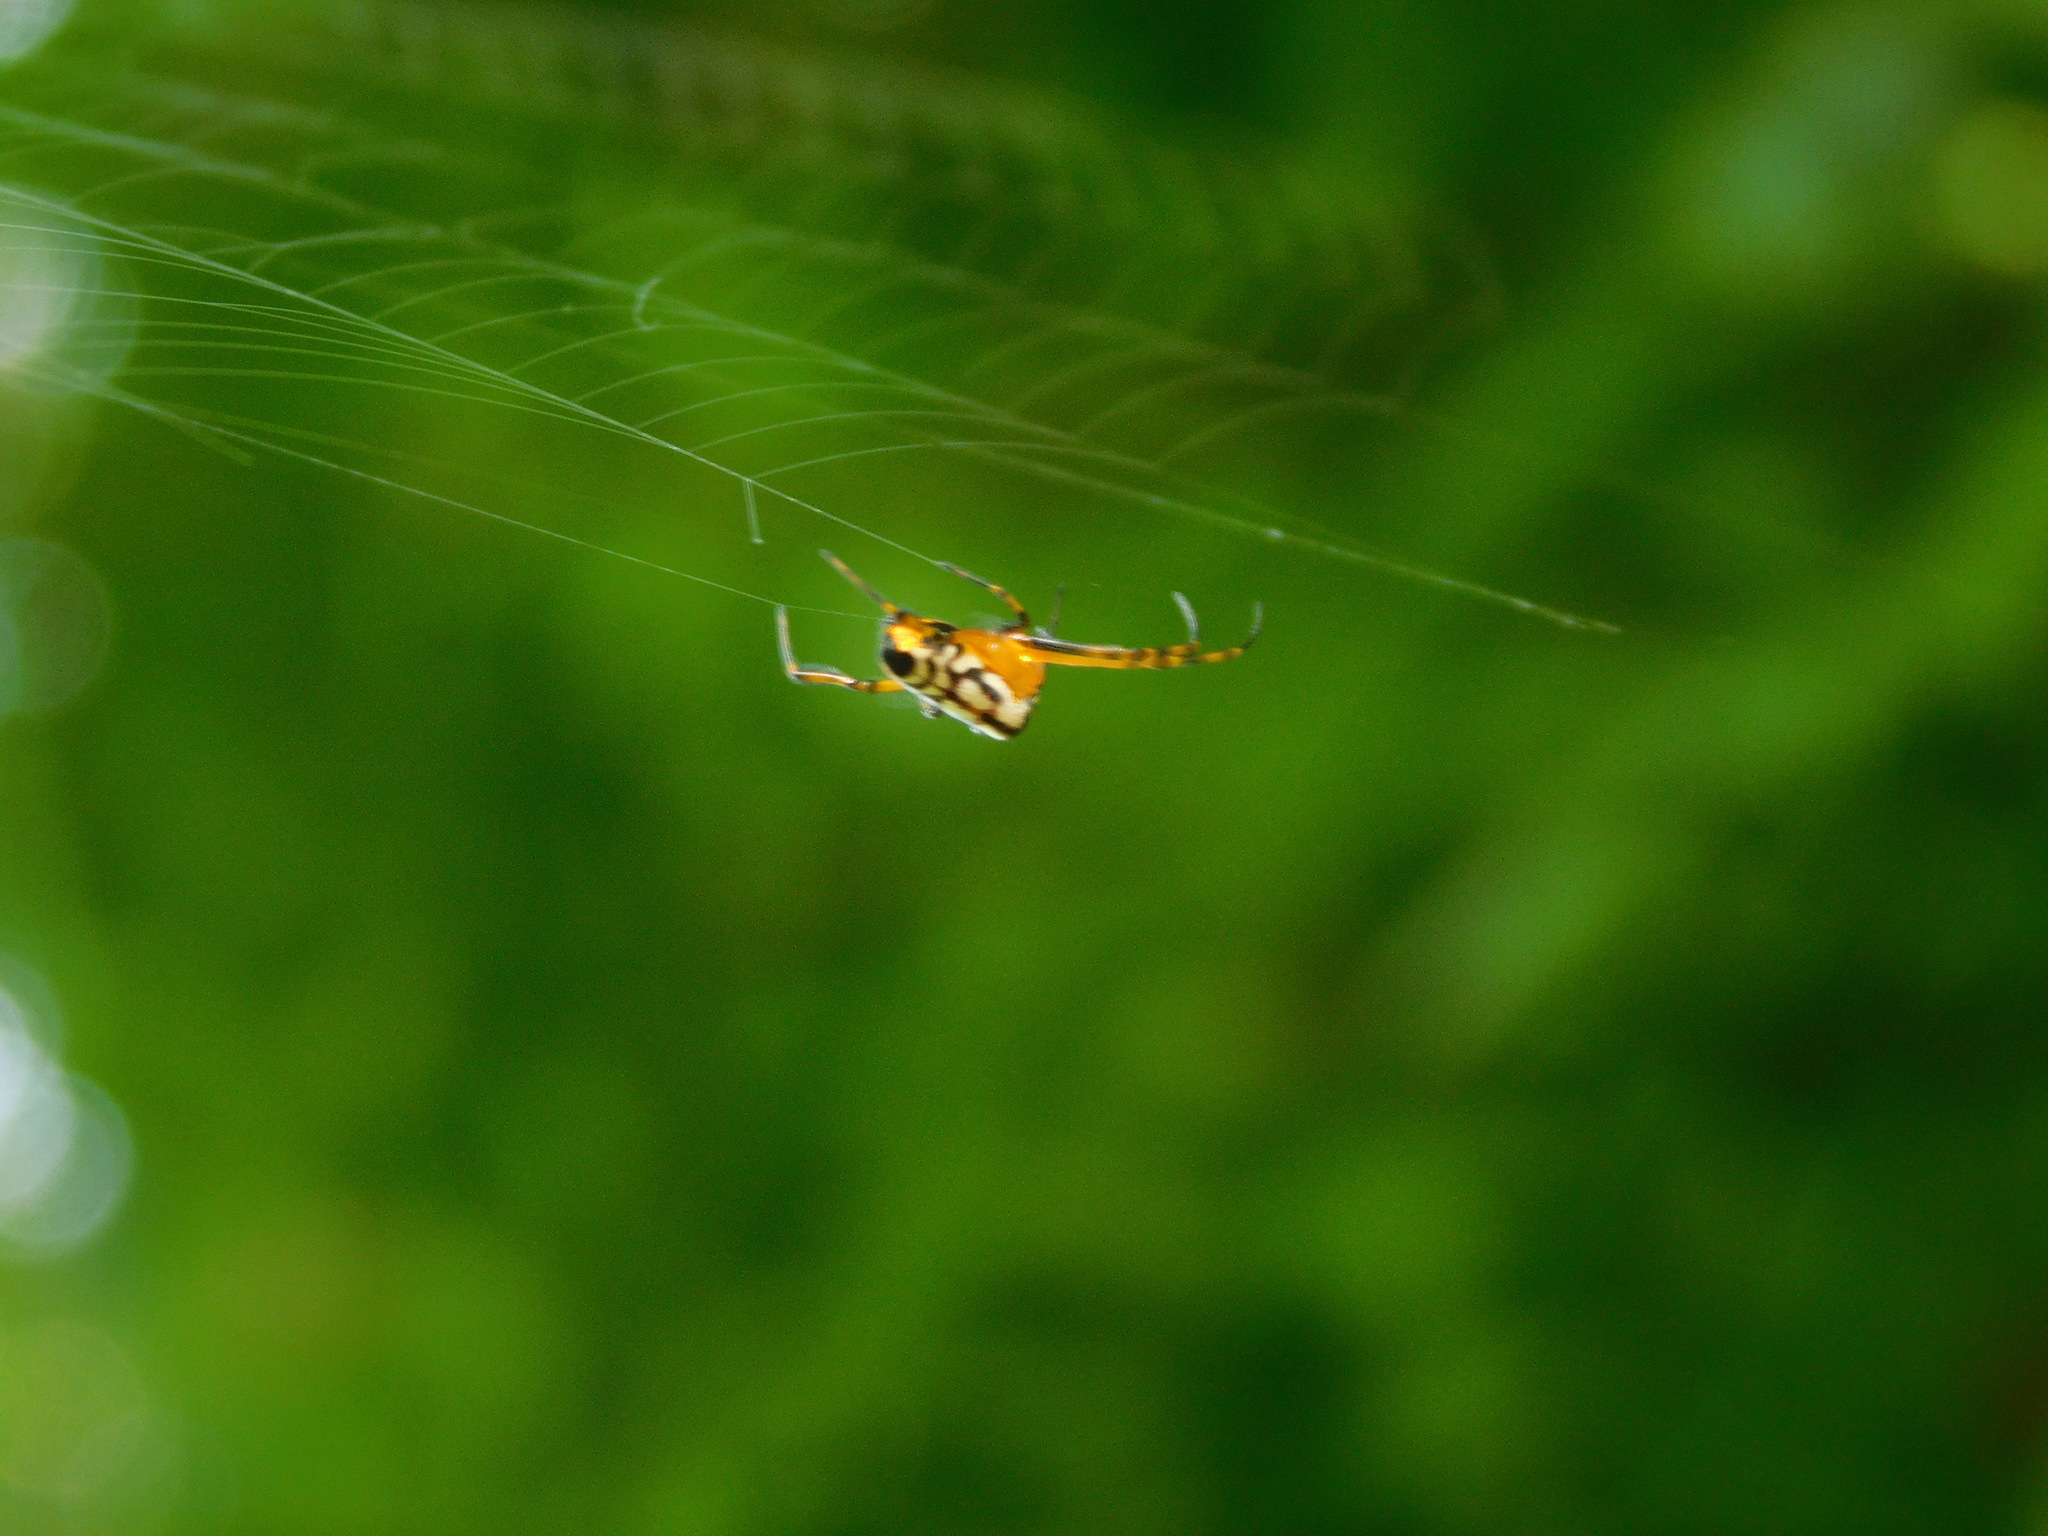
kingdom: Animalia
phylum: Arthropoda
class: Arachnida
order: Araneae
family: Tetragnathidae
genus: Leucauge
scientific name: Leucauge fastigata
